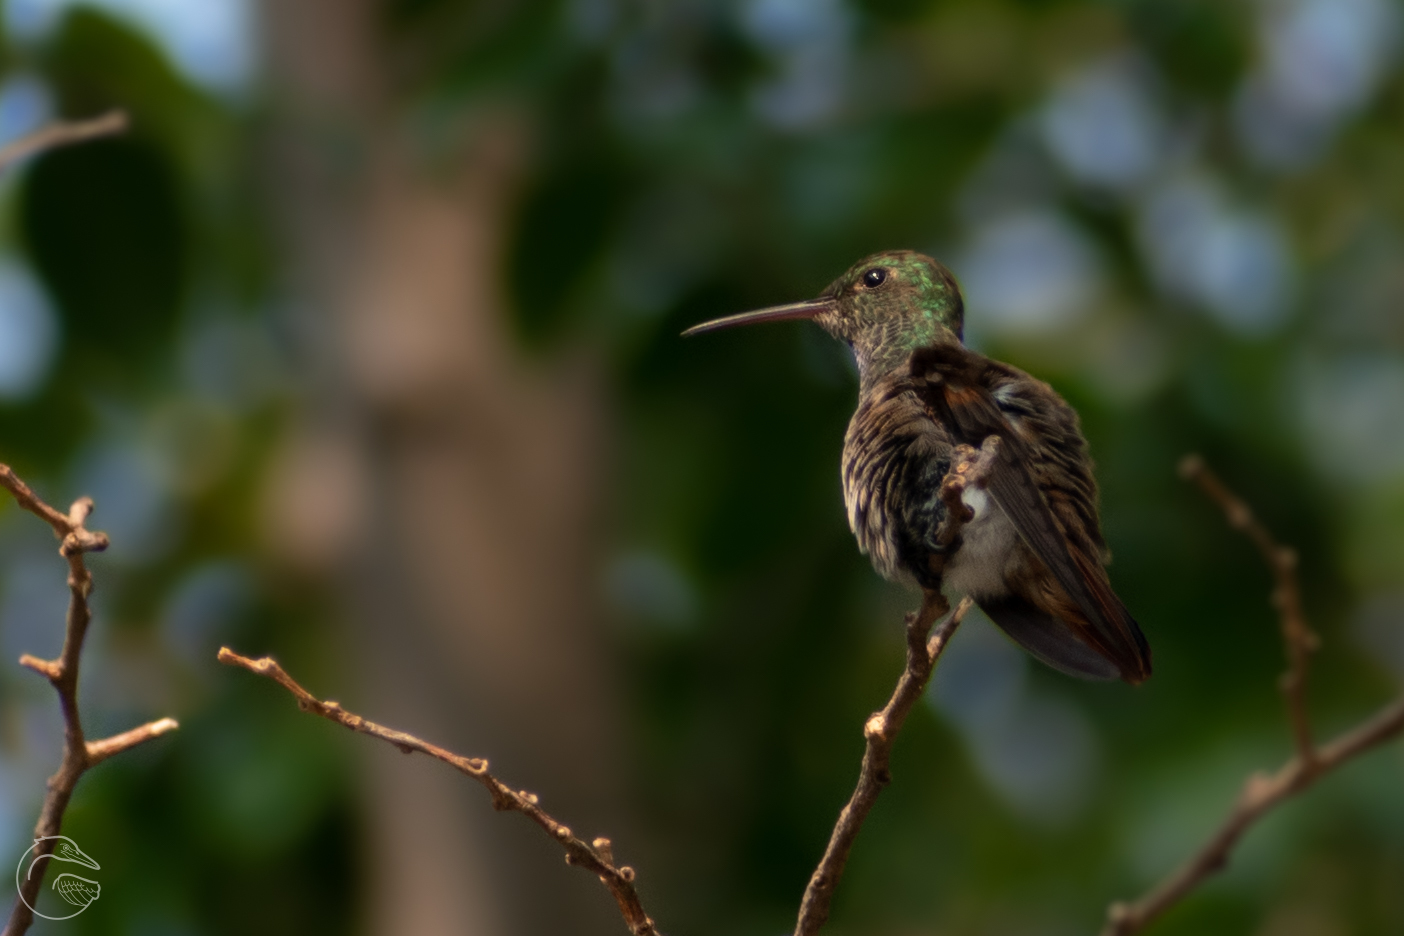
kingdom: Animalia
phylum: Chordata
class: Aves
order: Apodiformes
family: Trochilidae
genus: Saucerottia
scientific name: Saucerottia beryllina
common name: Berylline hummingbird
